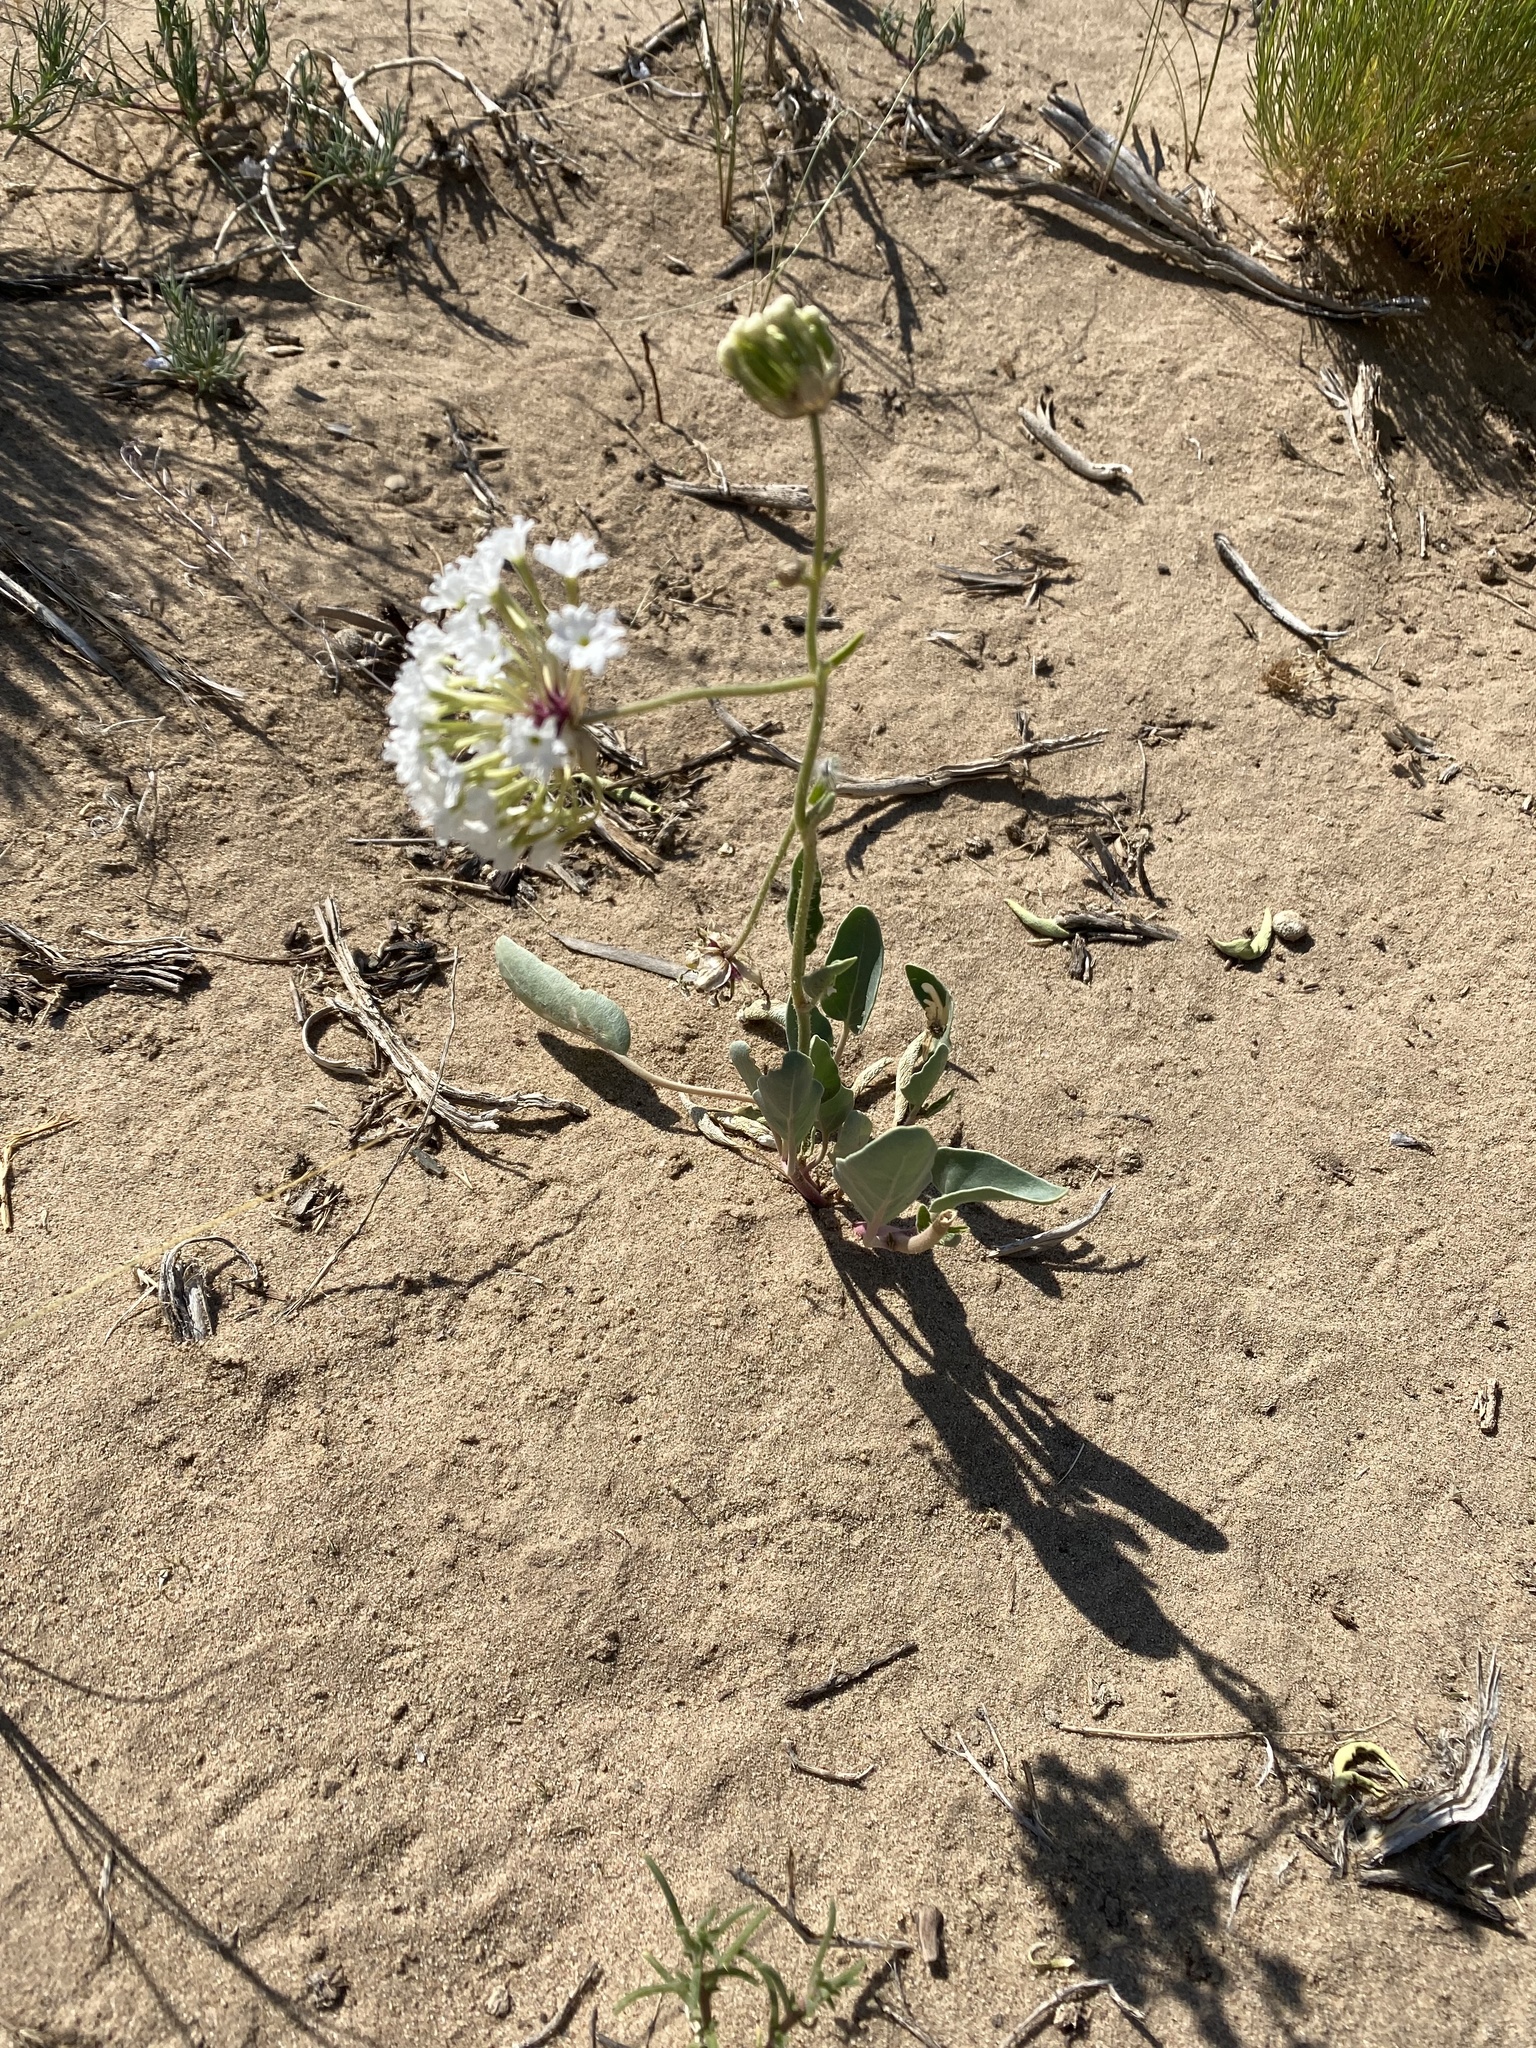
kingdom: Animalia
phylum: Arthropoda
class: Insecta
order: Lepidoptera
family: Heliodinidae
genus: Lithariapteryx
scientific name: Lithariapteryx abroniaeella
